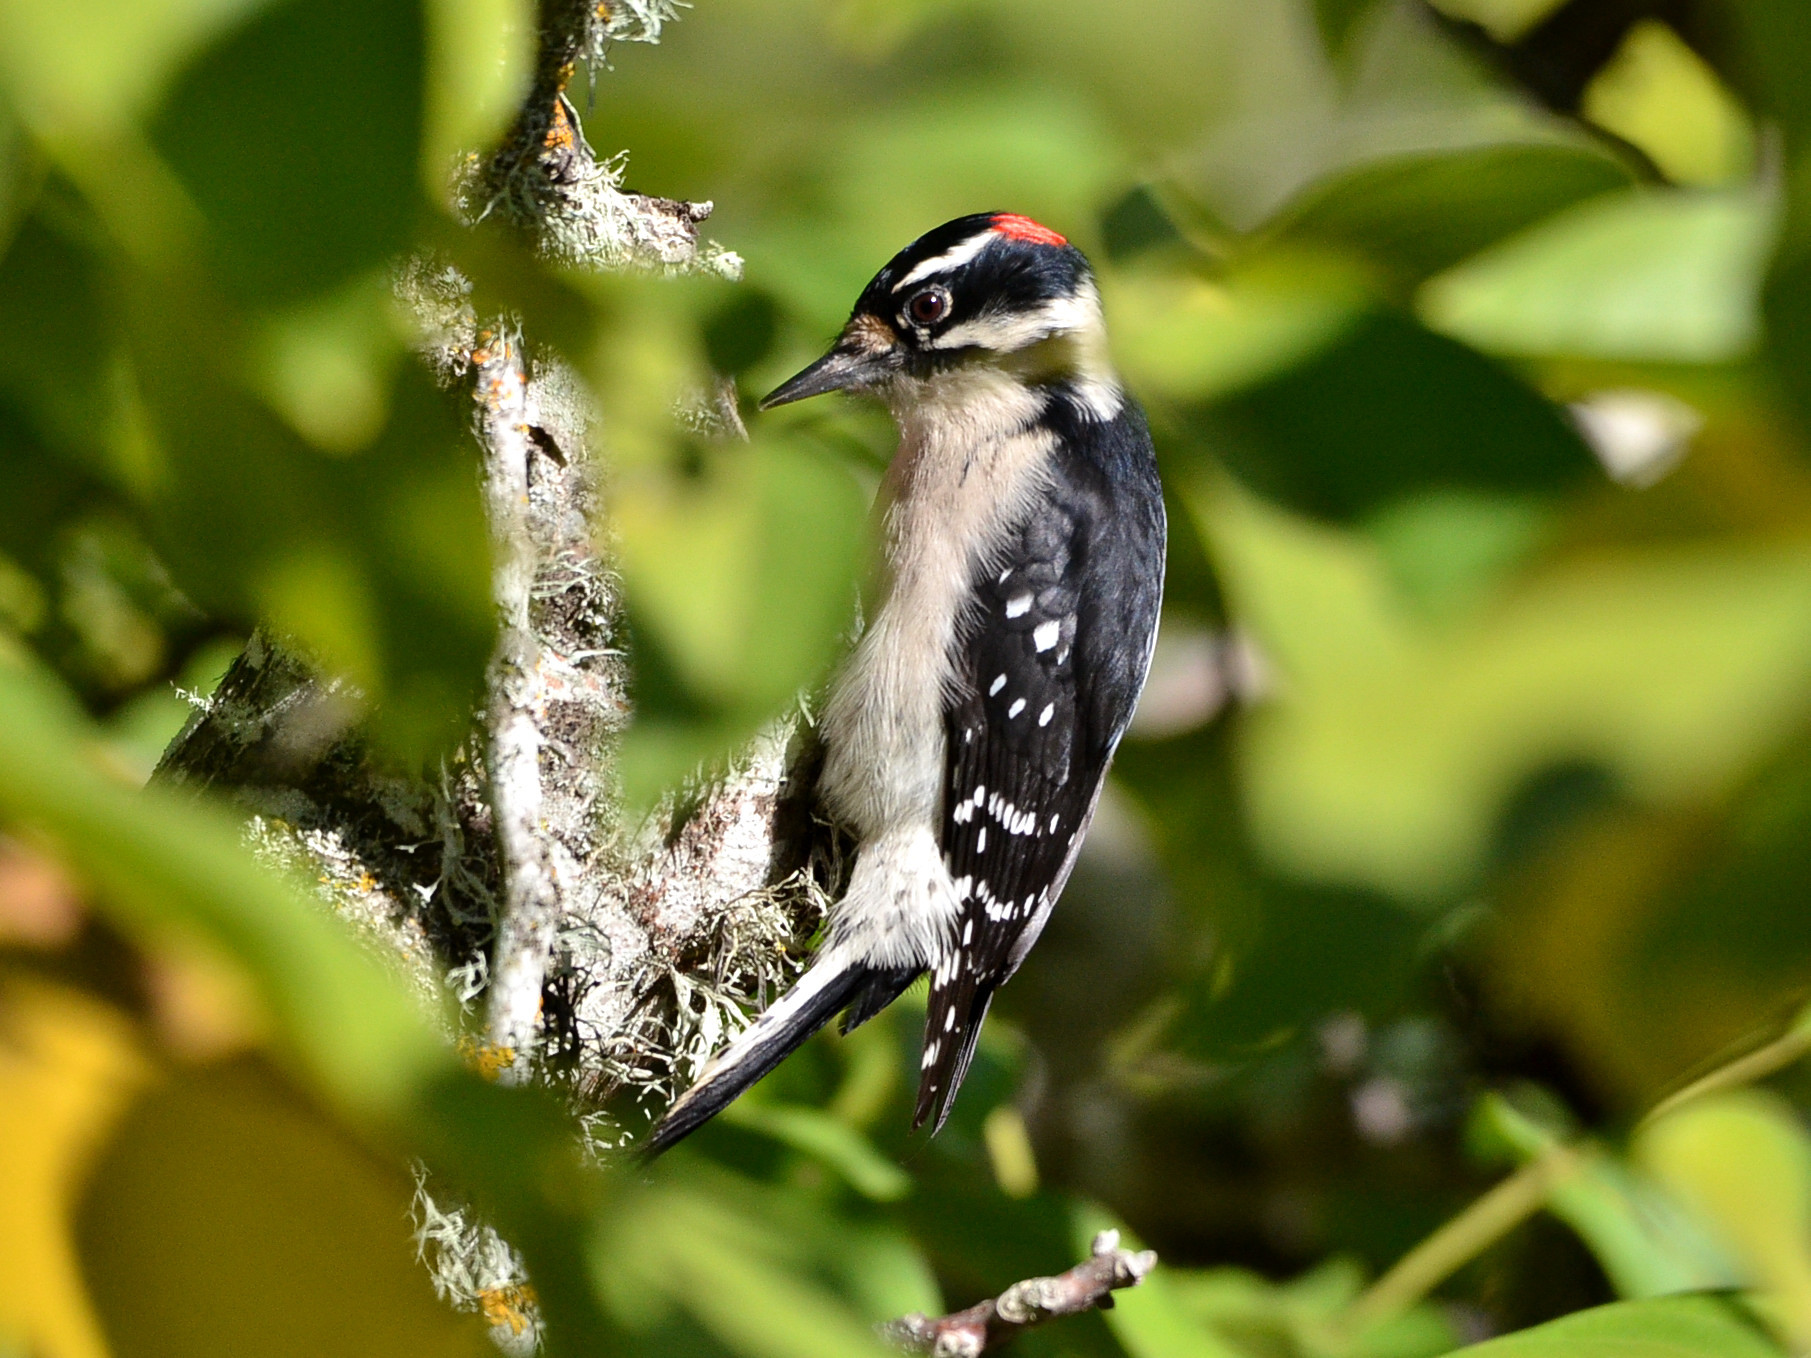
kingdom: Animalia
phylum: Chordata
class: Aves
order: Piciformes
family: Picidae
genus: Dryobates
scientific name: Dryobates pubescens
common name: Downy woodpecker
